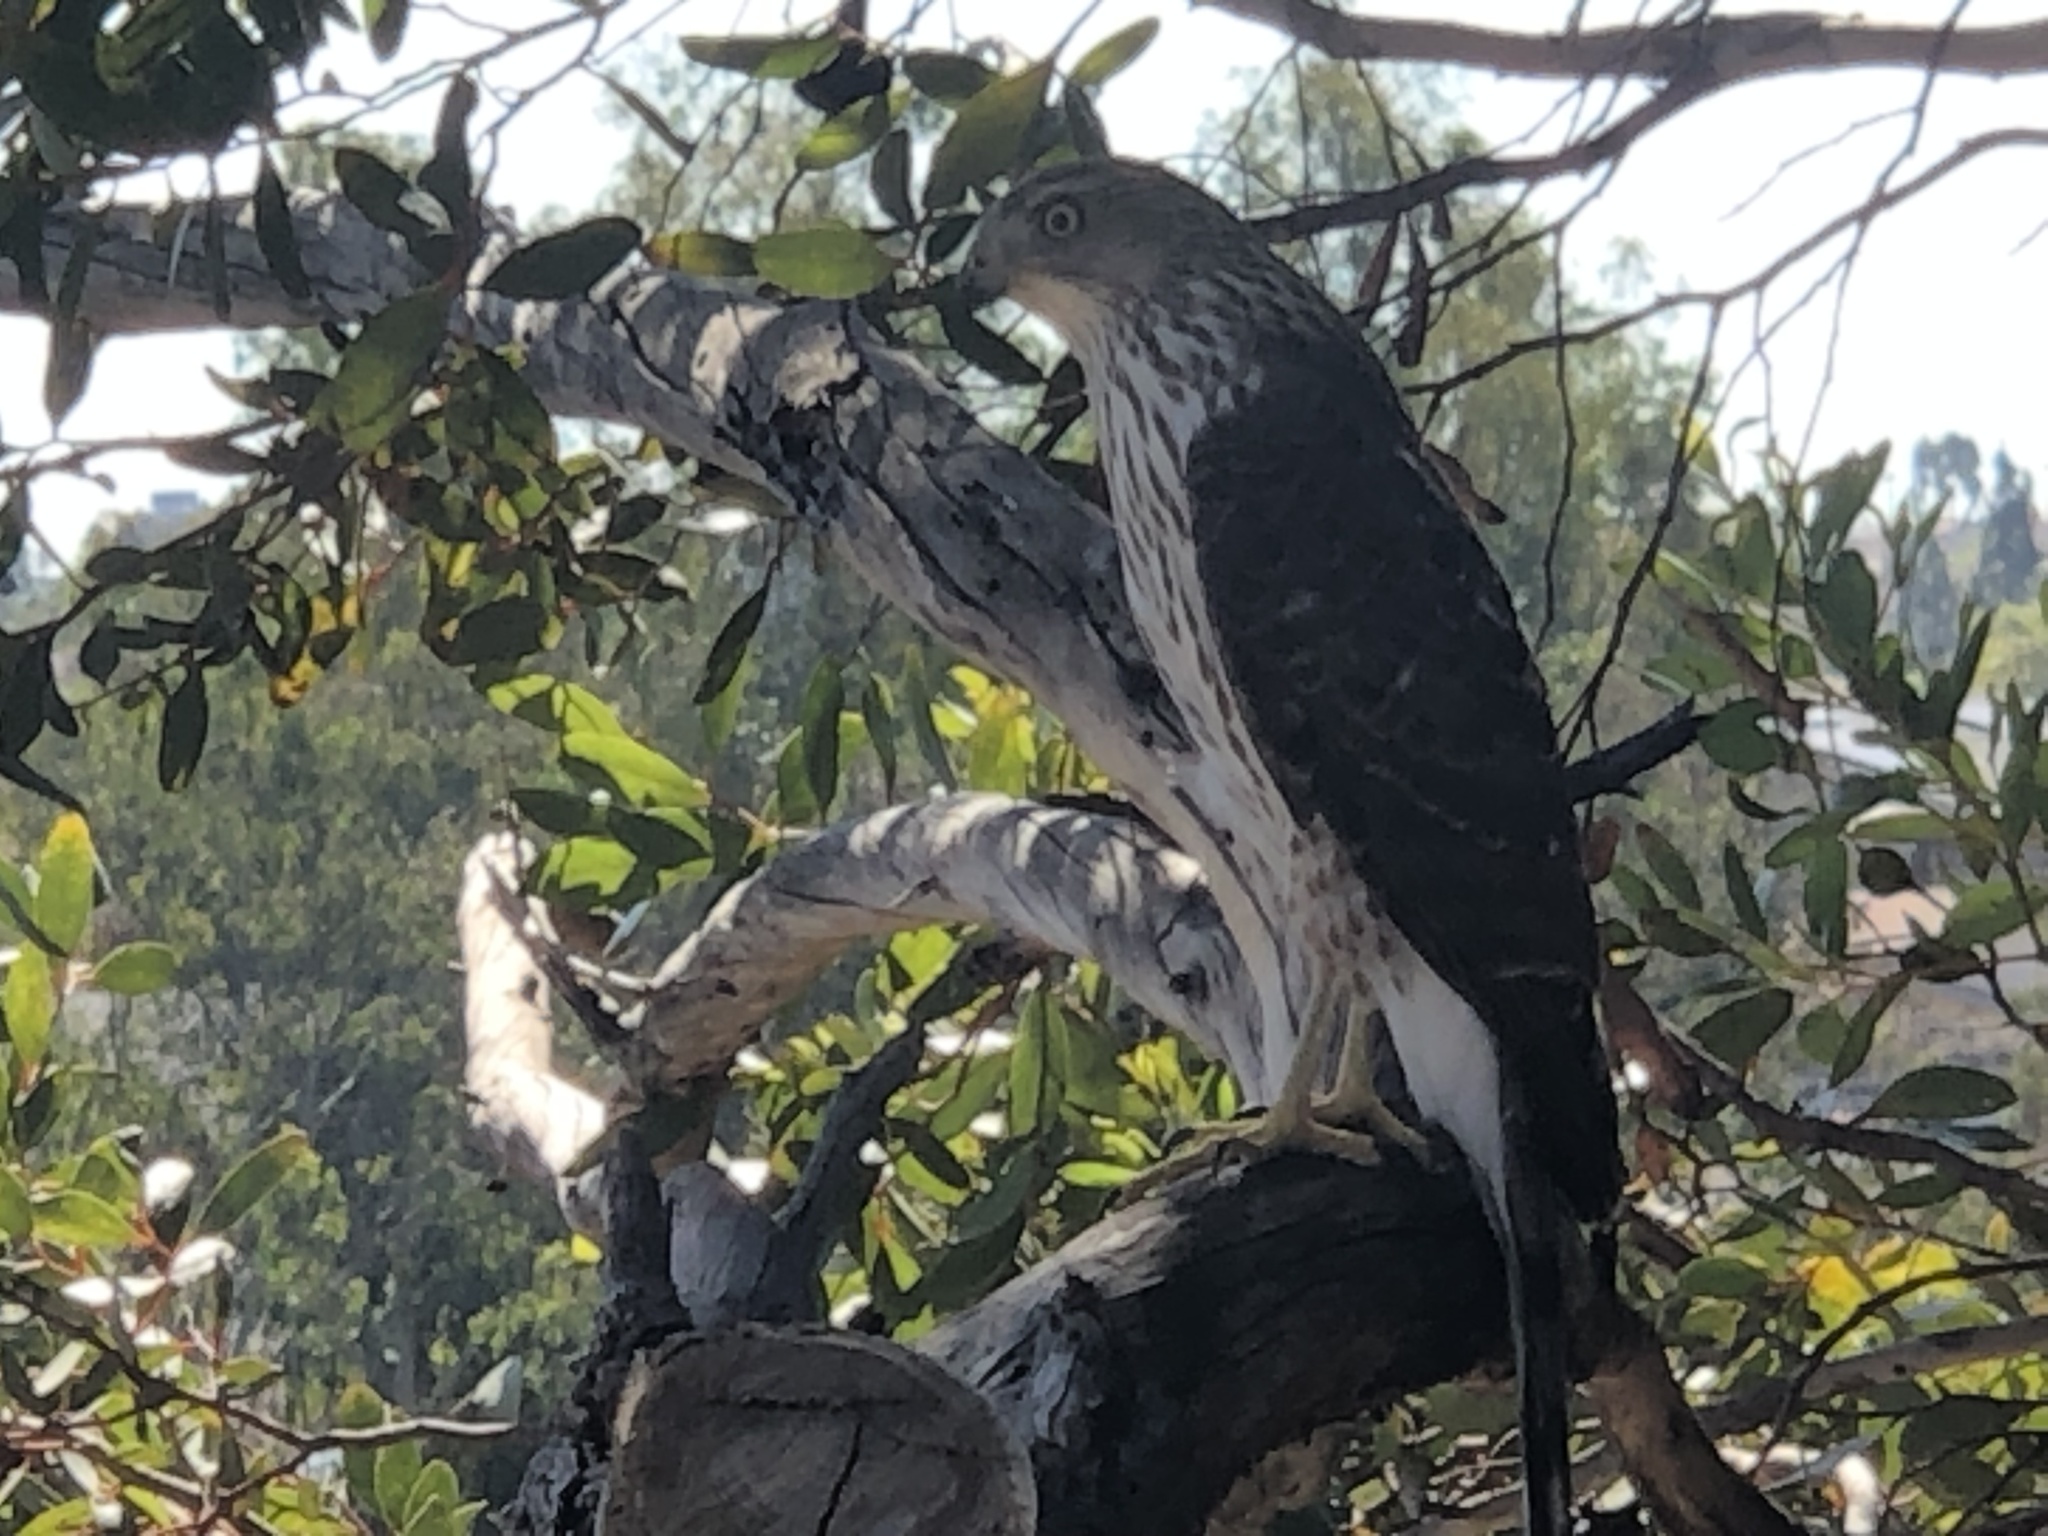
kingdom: Animalia
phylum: Chordata
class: Aves
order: Accipitriformes
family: Accipitridae
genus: Accipiter
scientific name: Accipiter cooperii
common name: Cooper's hawk
